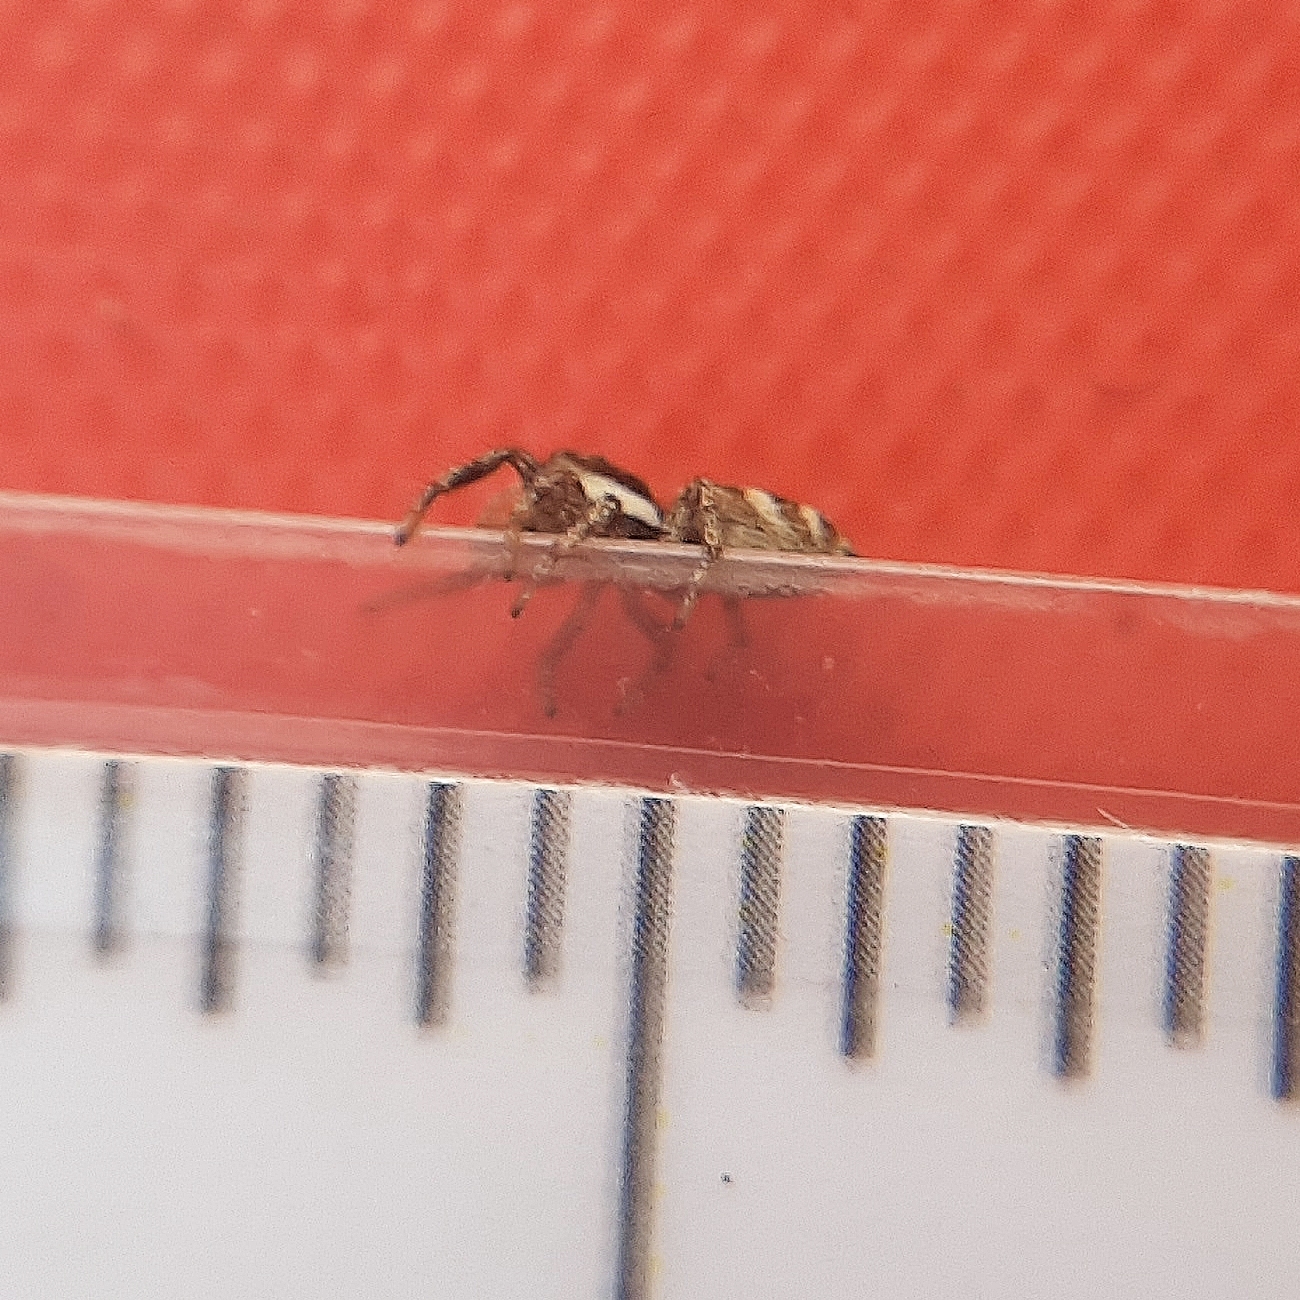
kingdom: Animalia
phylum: Arthropoda
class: Arachnida
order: Araneae
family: Salticidae
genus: Salticus
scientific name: Salticus scenicus
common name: Zebra jumper
